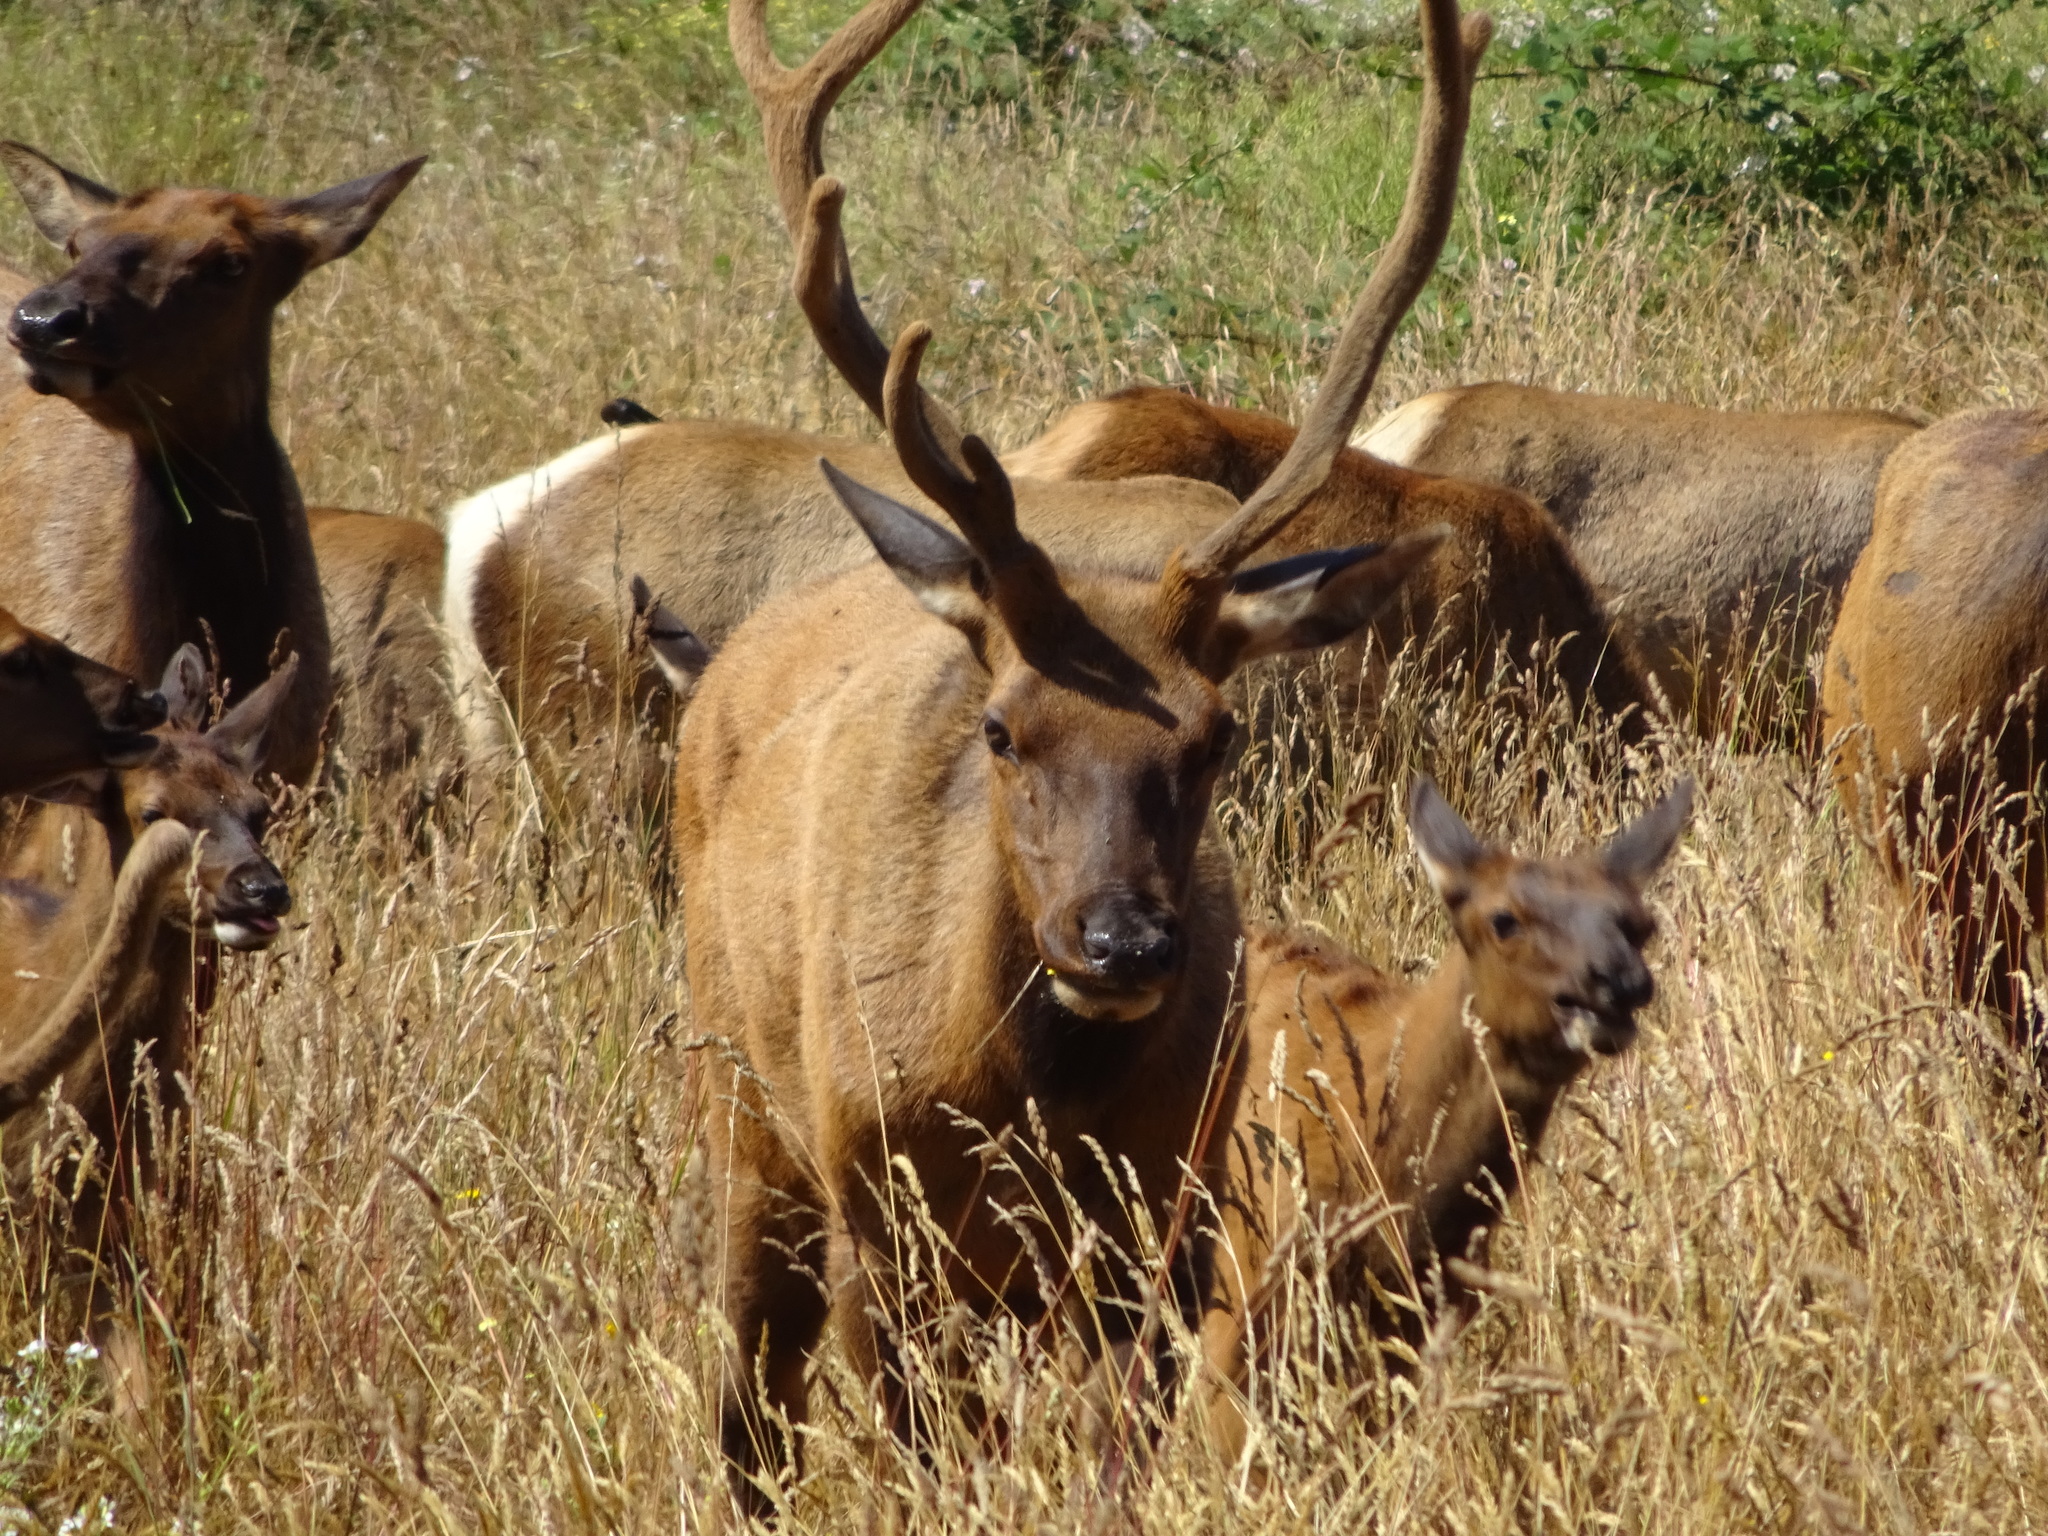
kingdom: Animalia
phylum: Chordata
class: Mammalia
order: Artiodactyla
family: Cervidae
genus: Cervus
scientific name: Cervus elaphus
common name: Red deer
